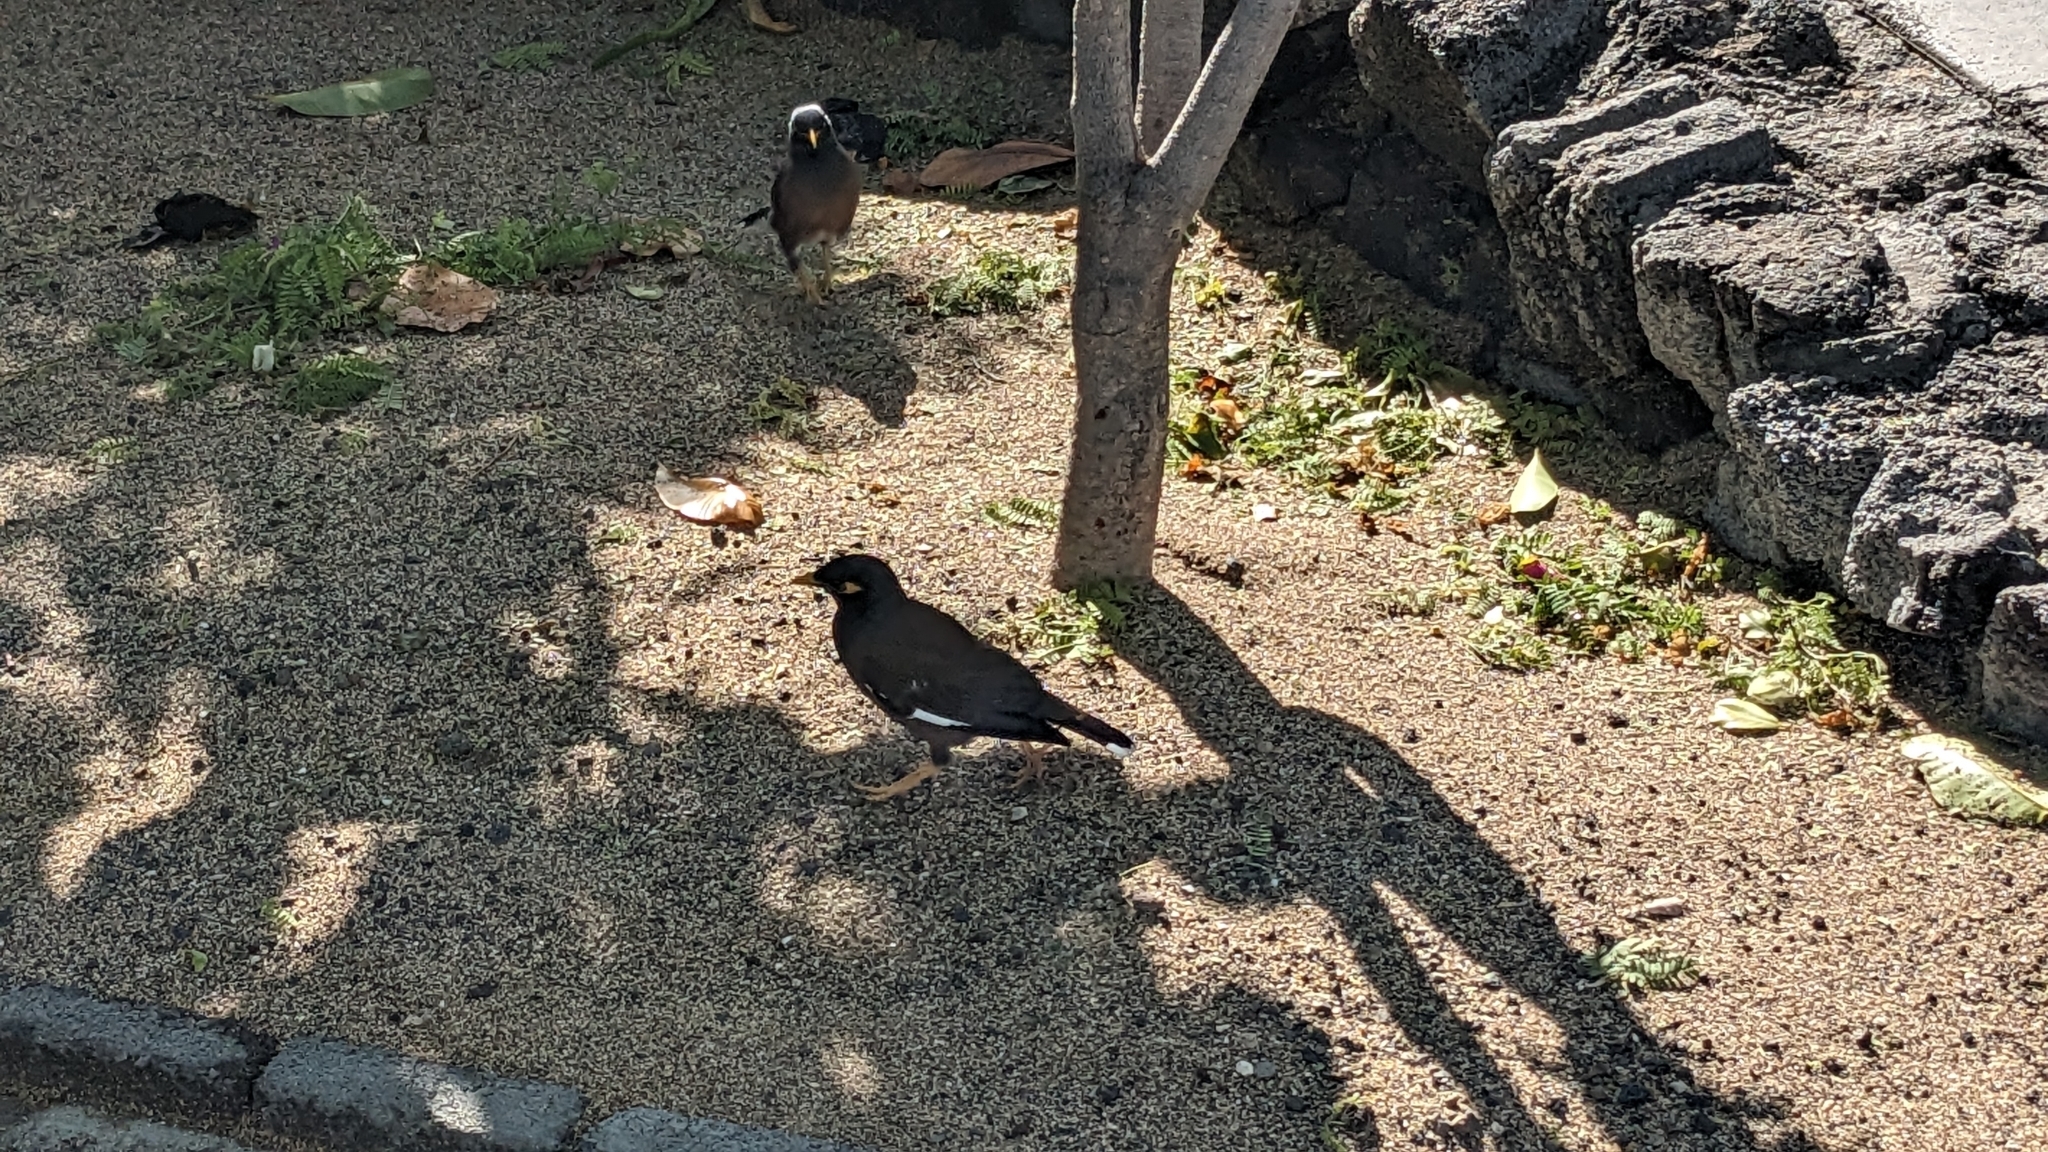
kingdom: Animalia
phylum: Chordata
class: Aves
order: Passeriformes
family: Sturnidae
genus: Acridotheres
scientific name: Acridotheres tristis
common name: Common myna
